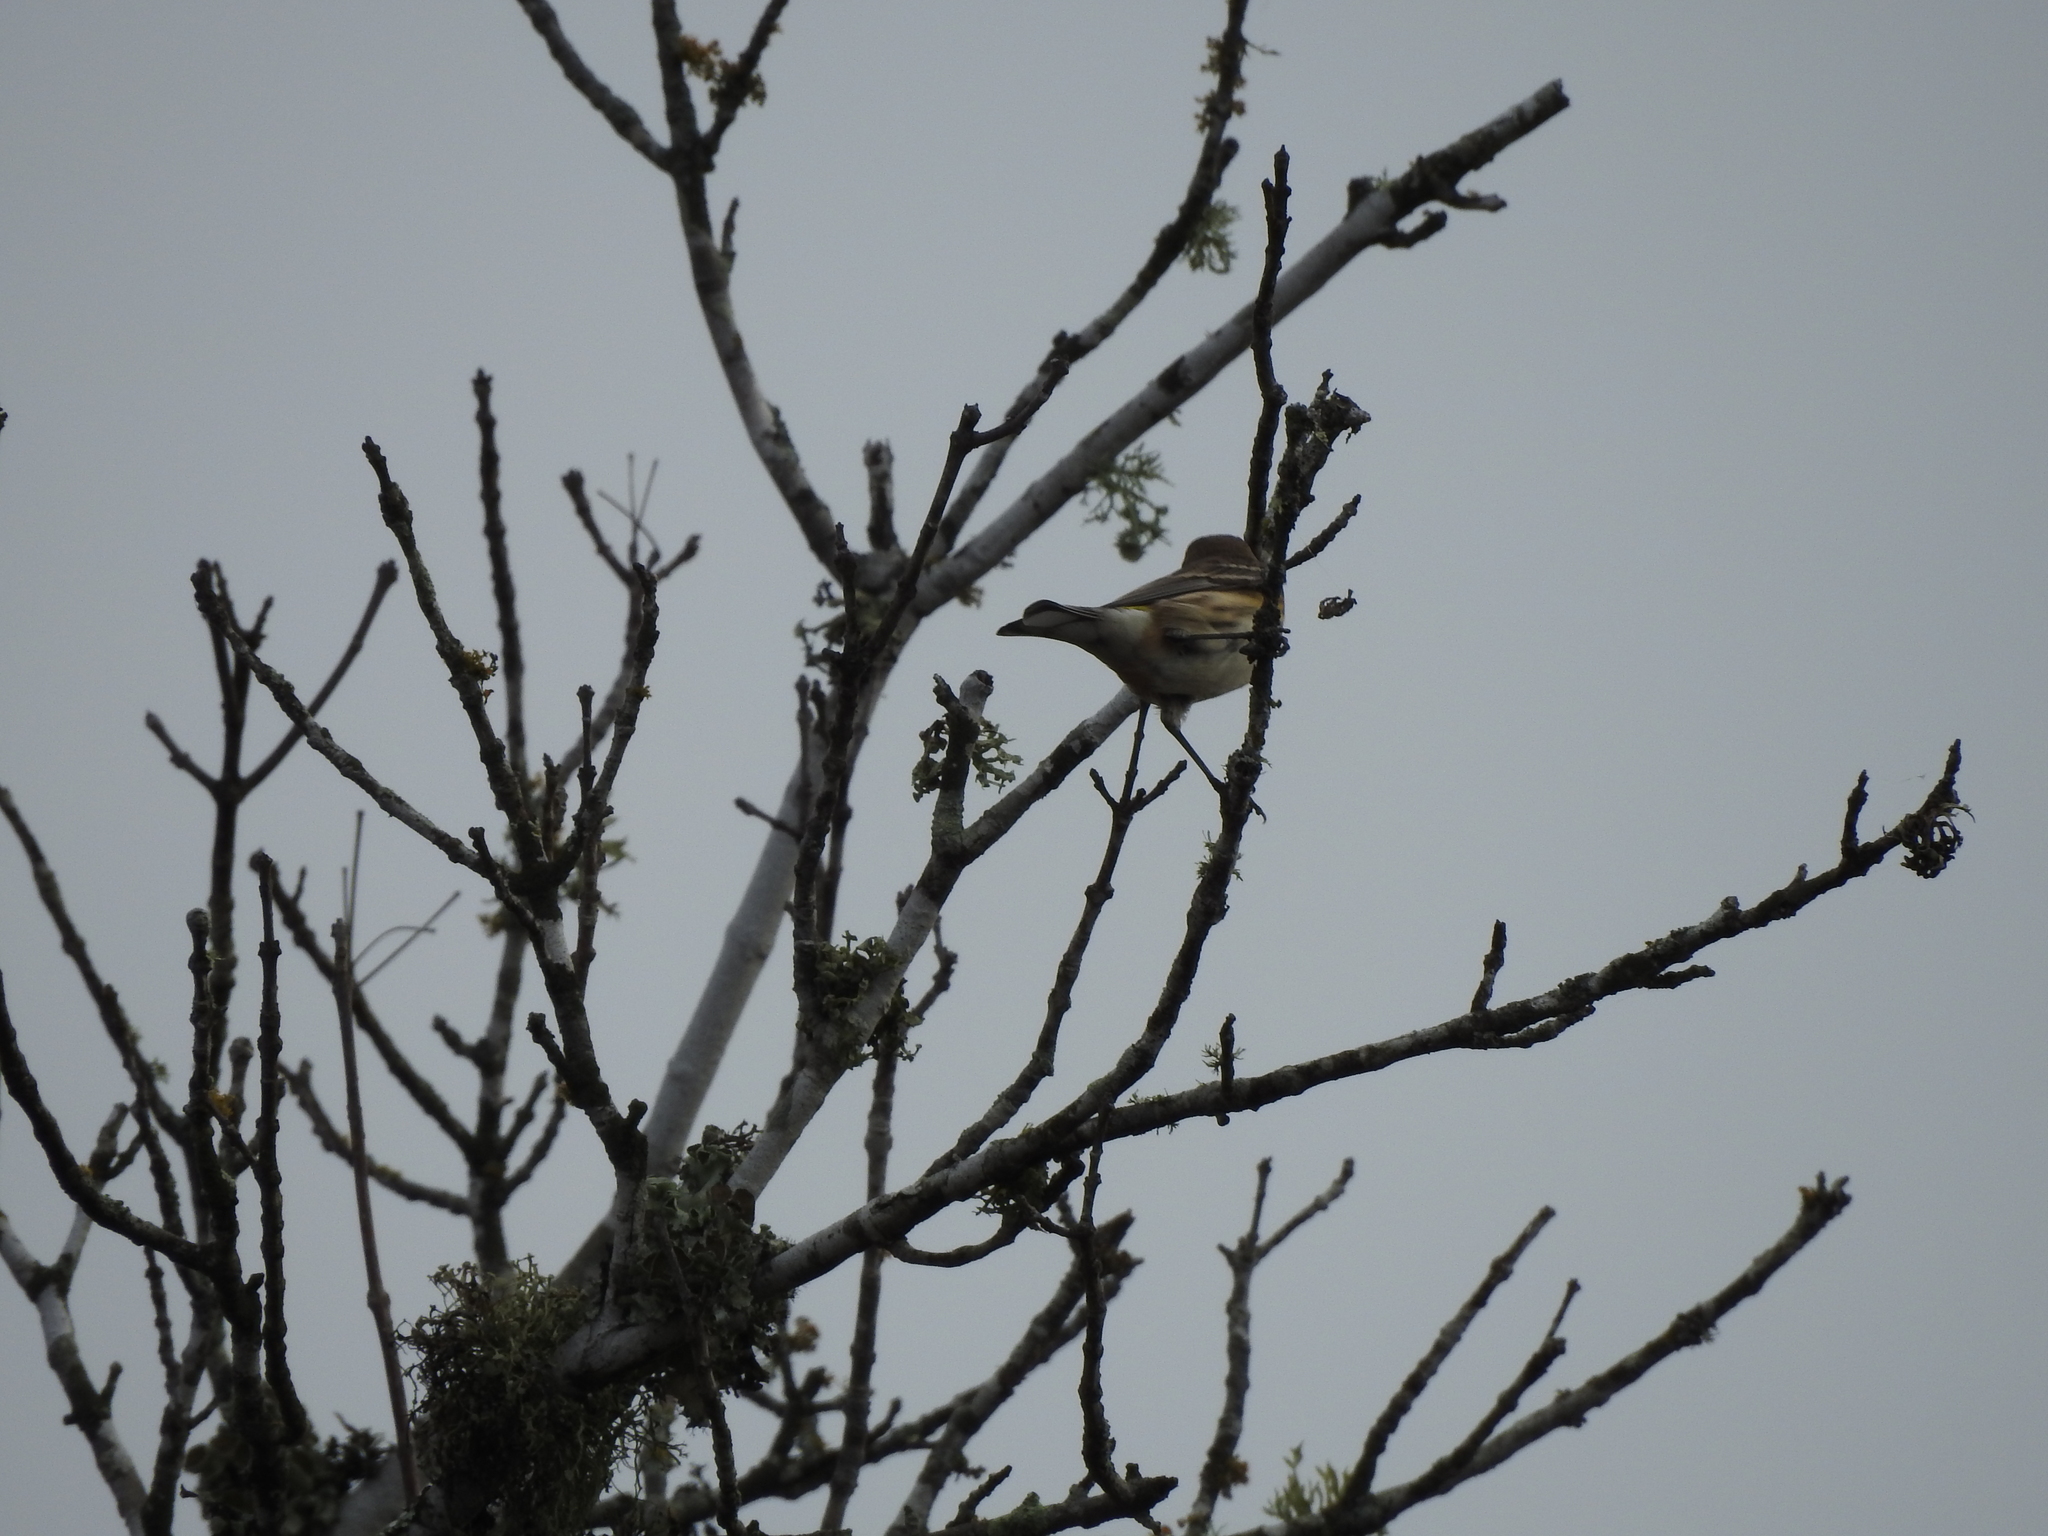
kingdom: Animalia
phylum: Chordata
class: Aves
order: Passeriformes
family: Parulidae
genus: Setophaga
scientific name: Setophaga coronata
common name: Myrtle warbler
